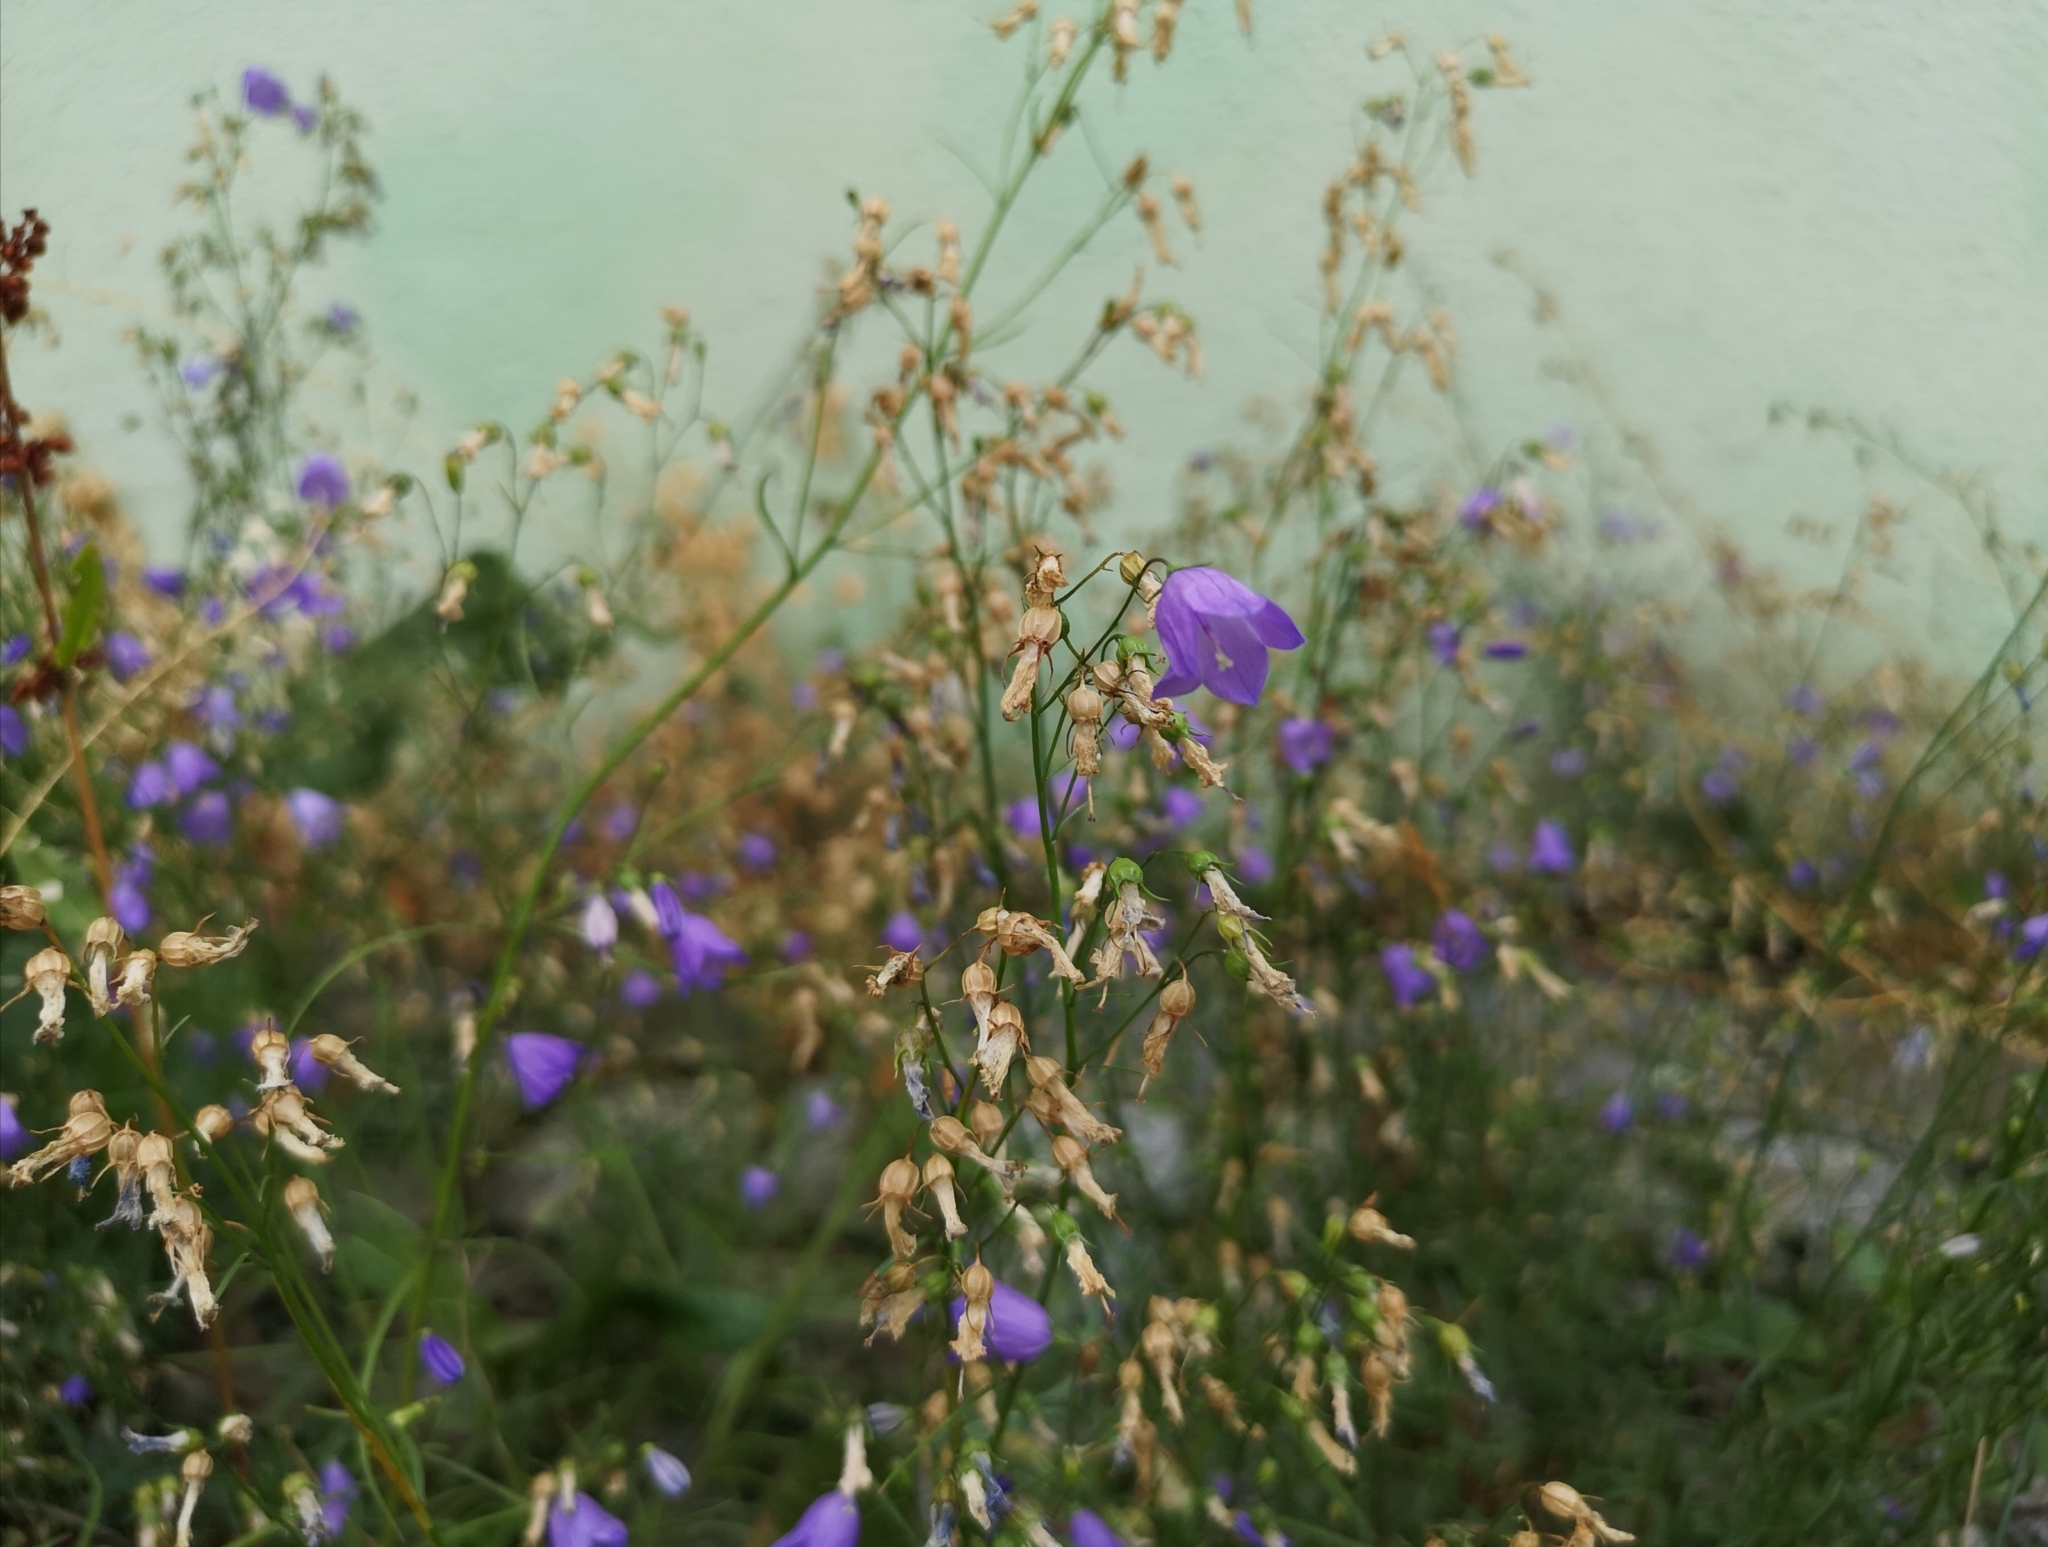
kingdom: Plantae
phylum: Tracheophyta
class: Magnoliopsida
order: Asterales
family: Campanulaceae
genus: Campanula
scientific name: Campanula rotundifolia
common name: Harebell
